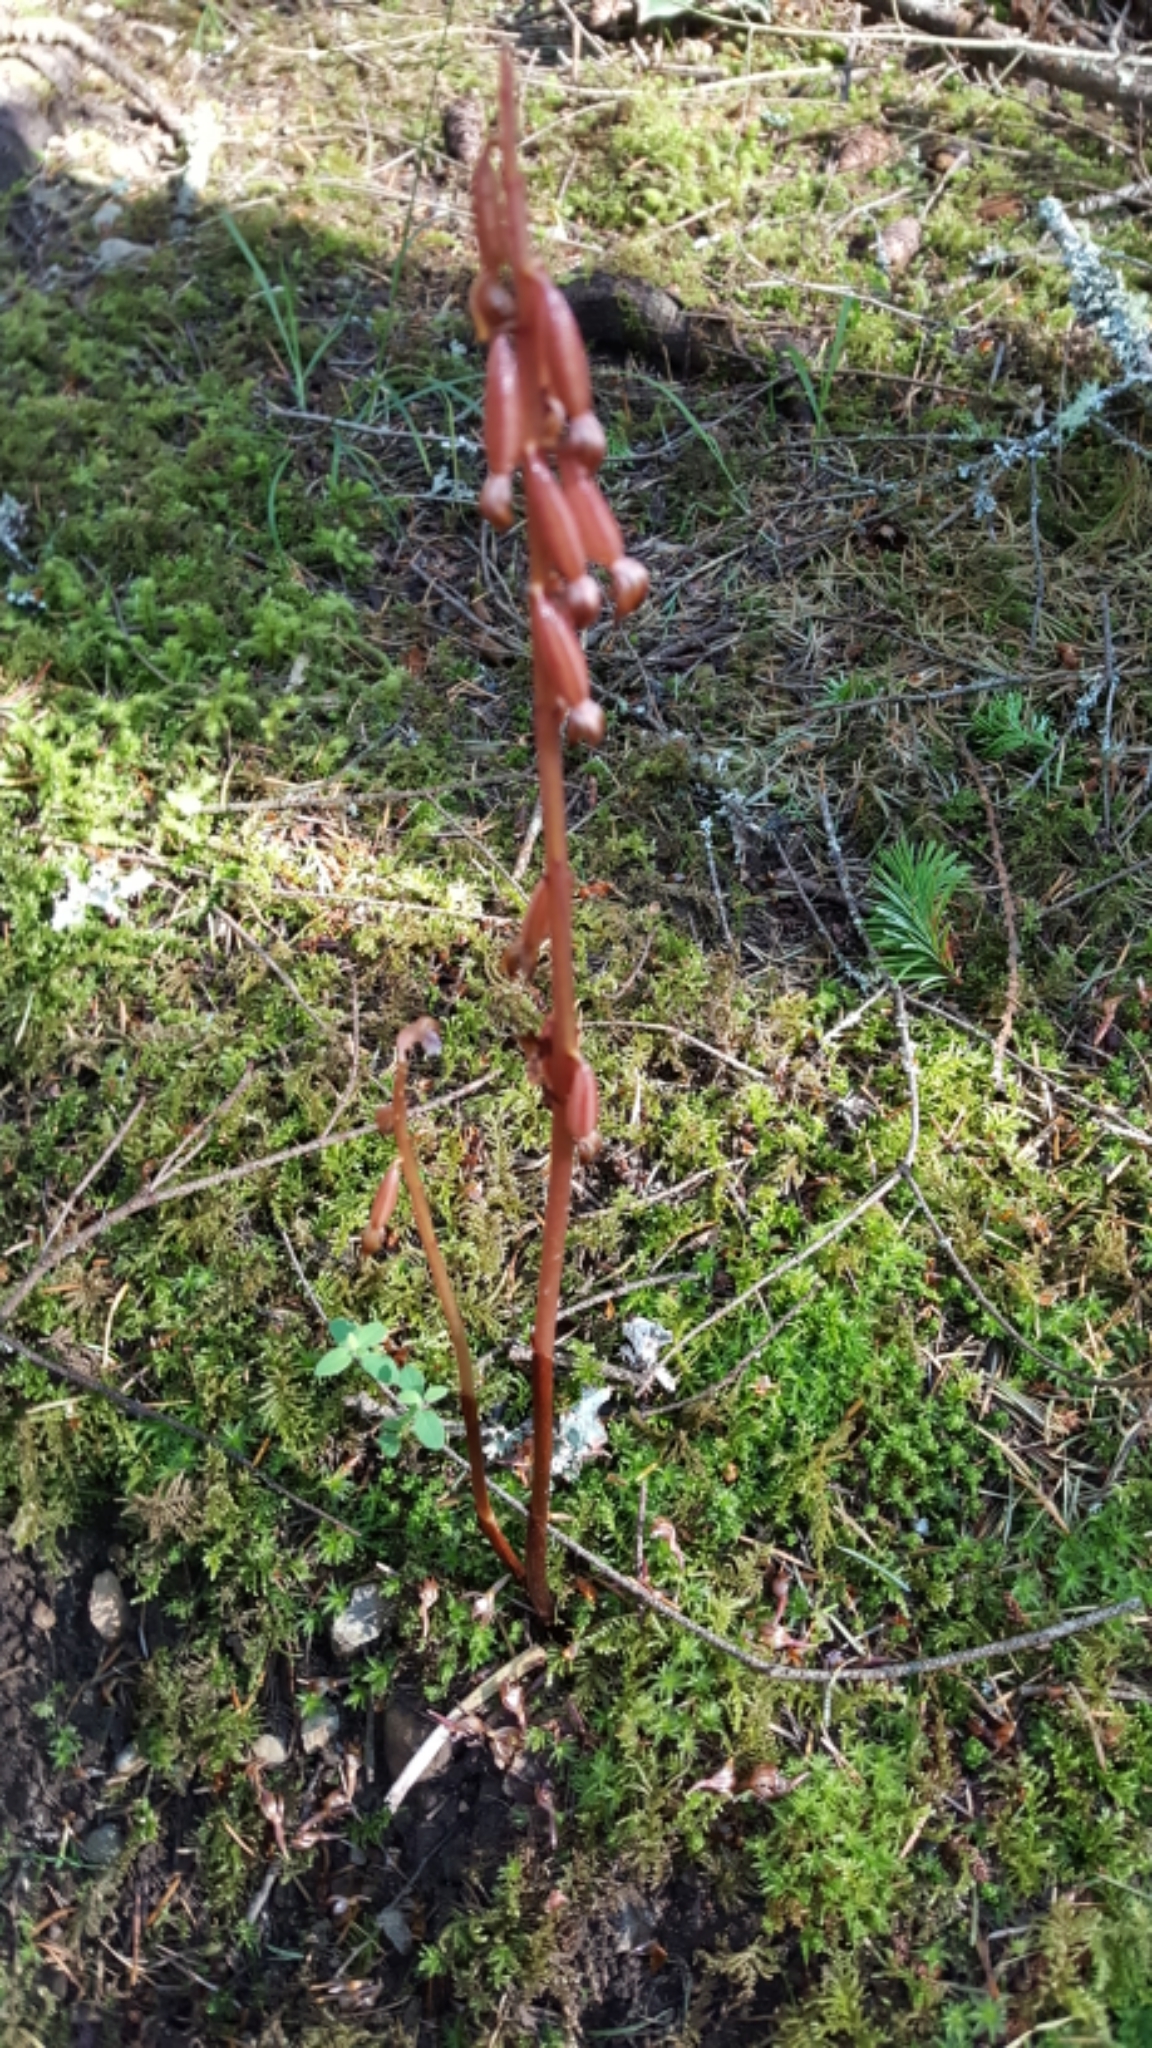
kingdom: Plantae
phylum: Tracheophyta
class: Liliopsida
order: Asparagales
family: Orchidaceae
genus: Corallorhiza
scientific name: Corallorhiza maculata
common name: Spotted coralroot
